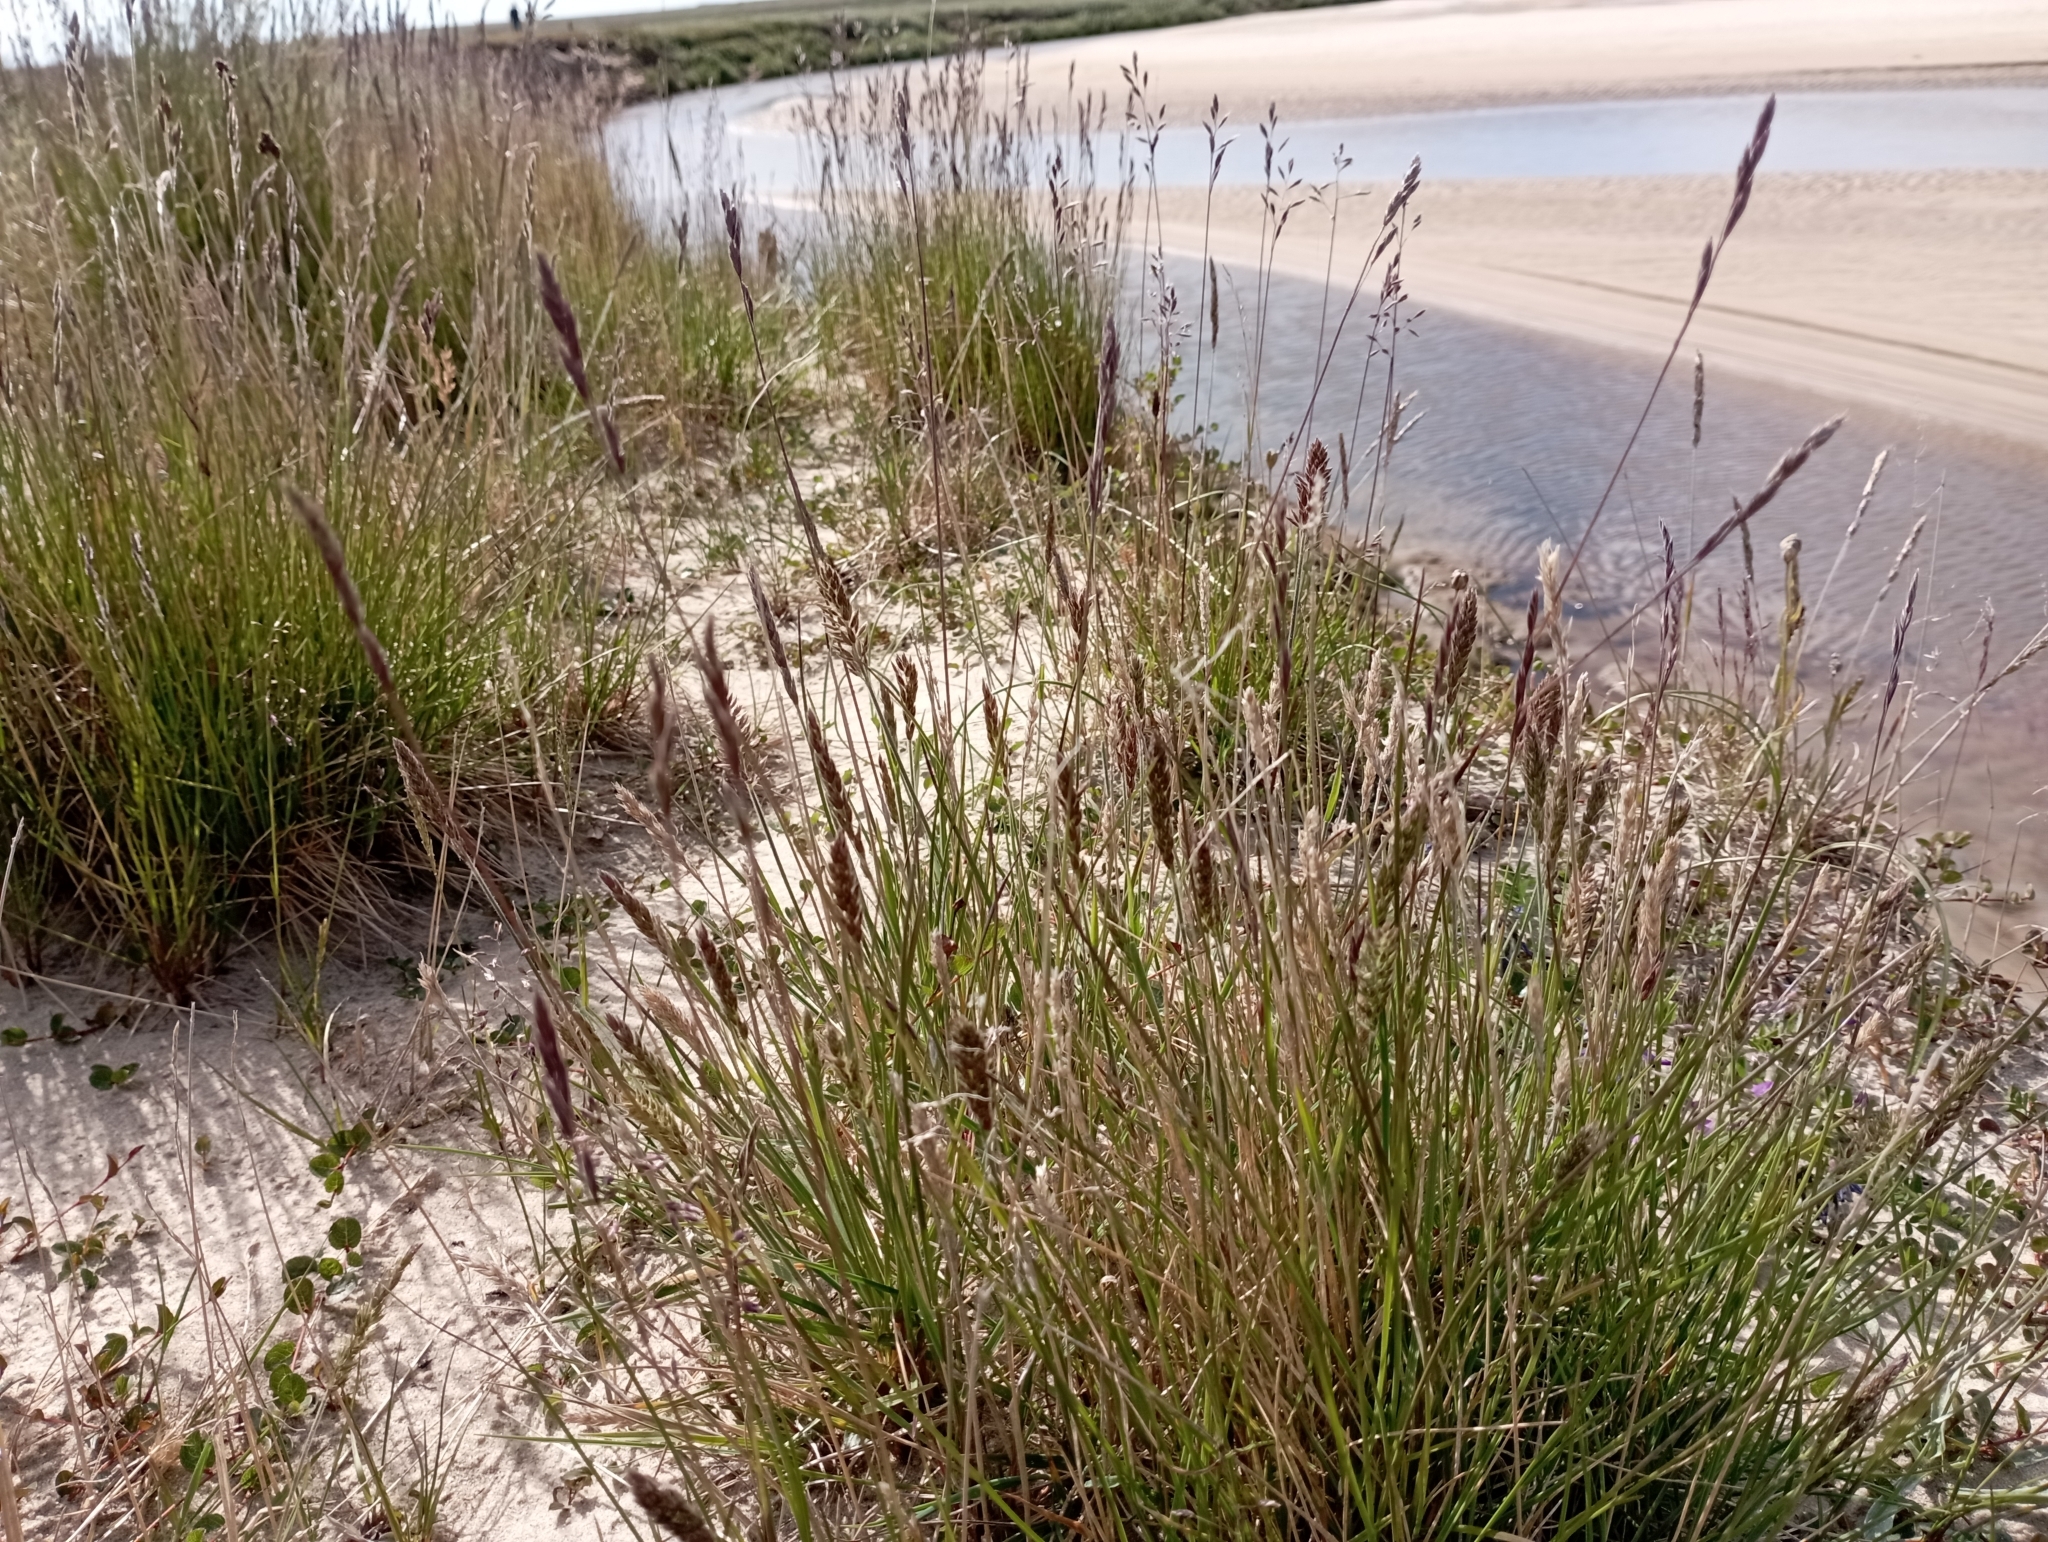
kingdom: Plantae
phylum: Tracheophyta
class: Liliopsida
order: Poales
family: Poaceae
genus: Koeleria
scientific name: Koeleria asiatica
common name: Eurasian junegrass
